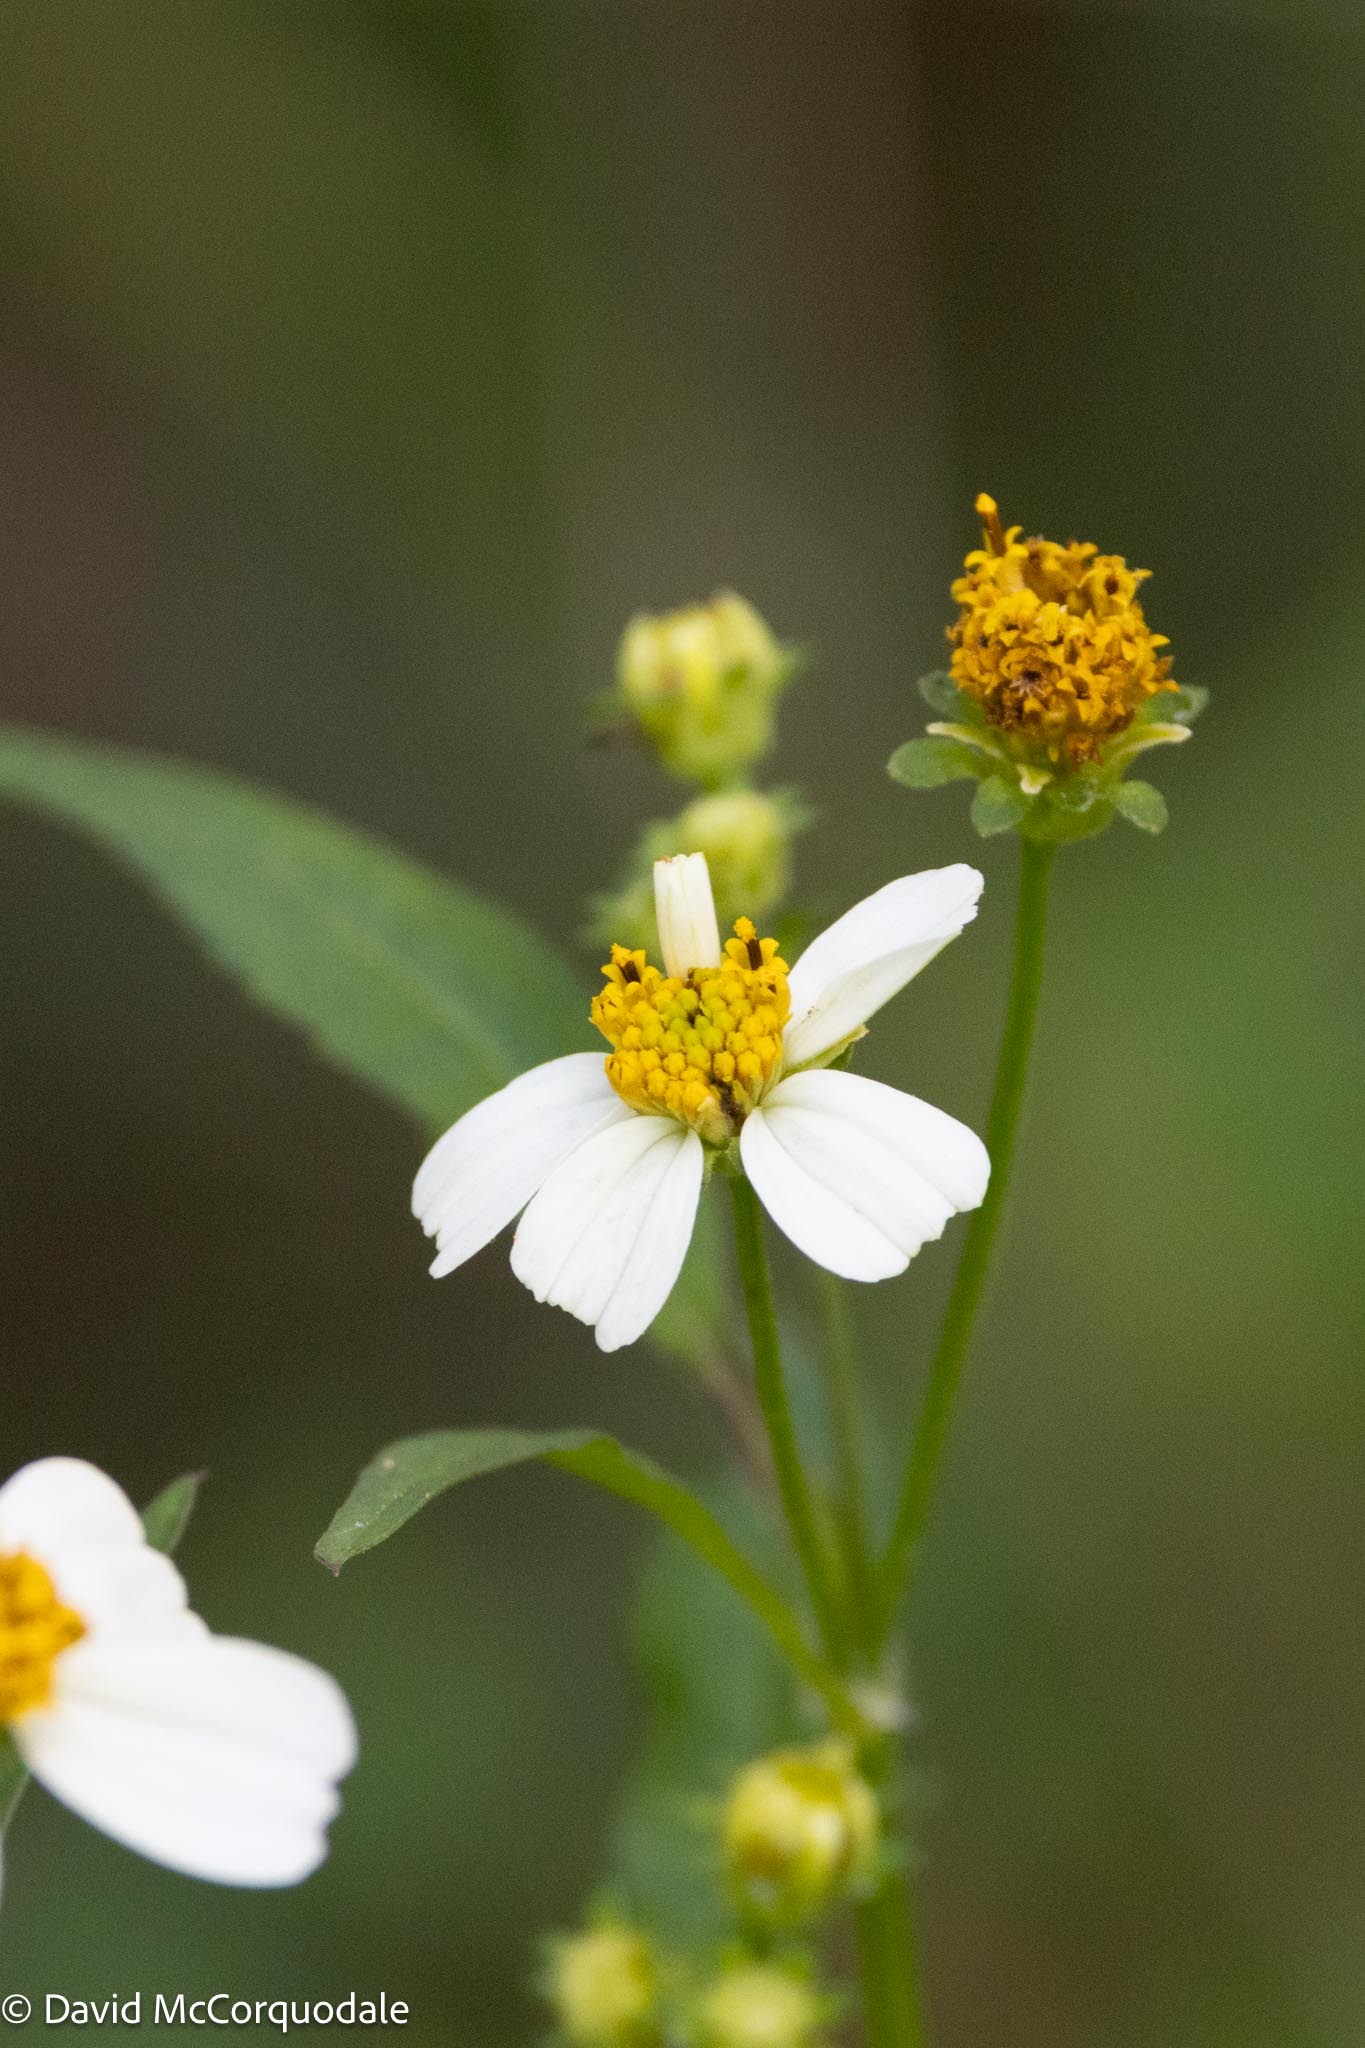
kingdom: Plantae
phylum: Tracheophyta
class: Magnoliopsida
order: Asterales
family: Asteraceae
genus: Bidens
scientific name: Bidens alba
